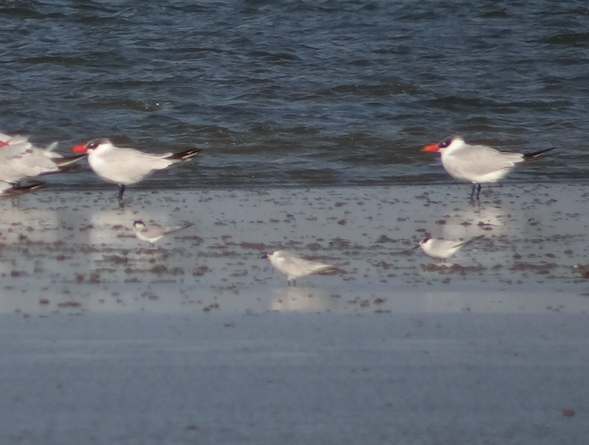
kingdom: Animalia
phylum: Chordata
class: Aves
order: Charadriiformes
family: Laridae
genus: Sternula
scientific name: Sternula albifrons
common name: Little tern
